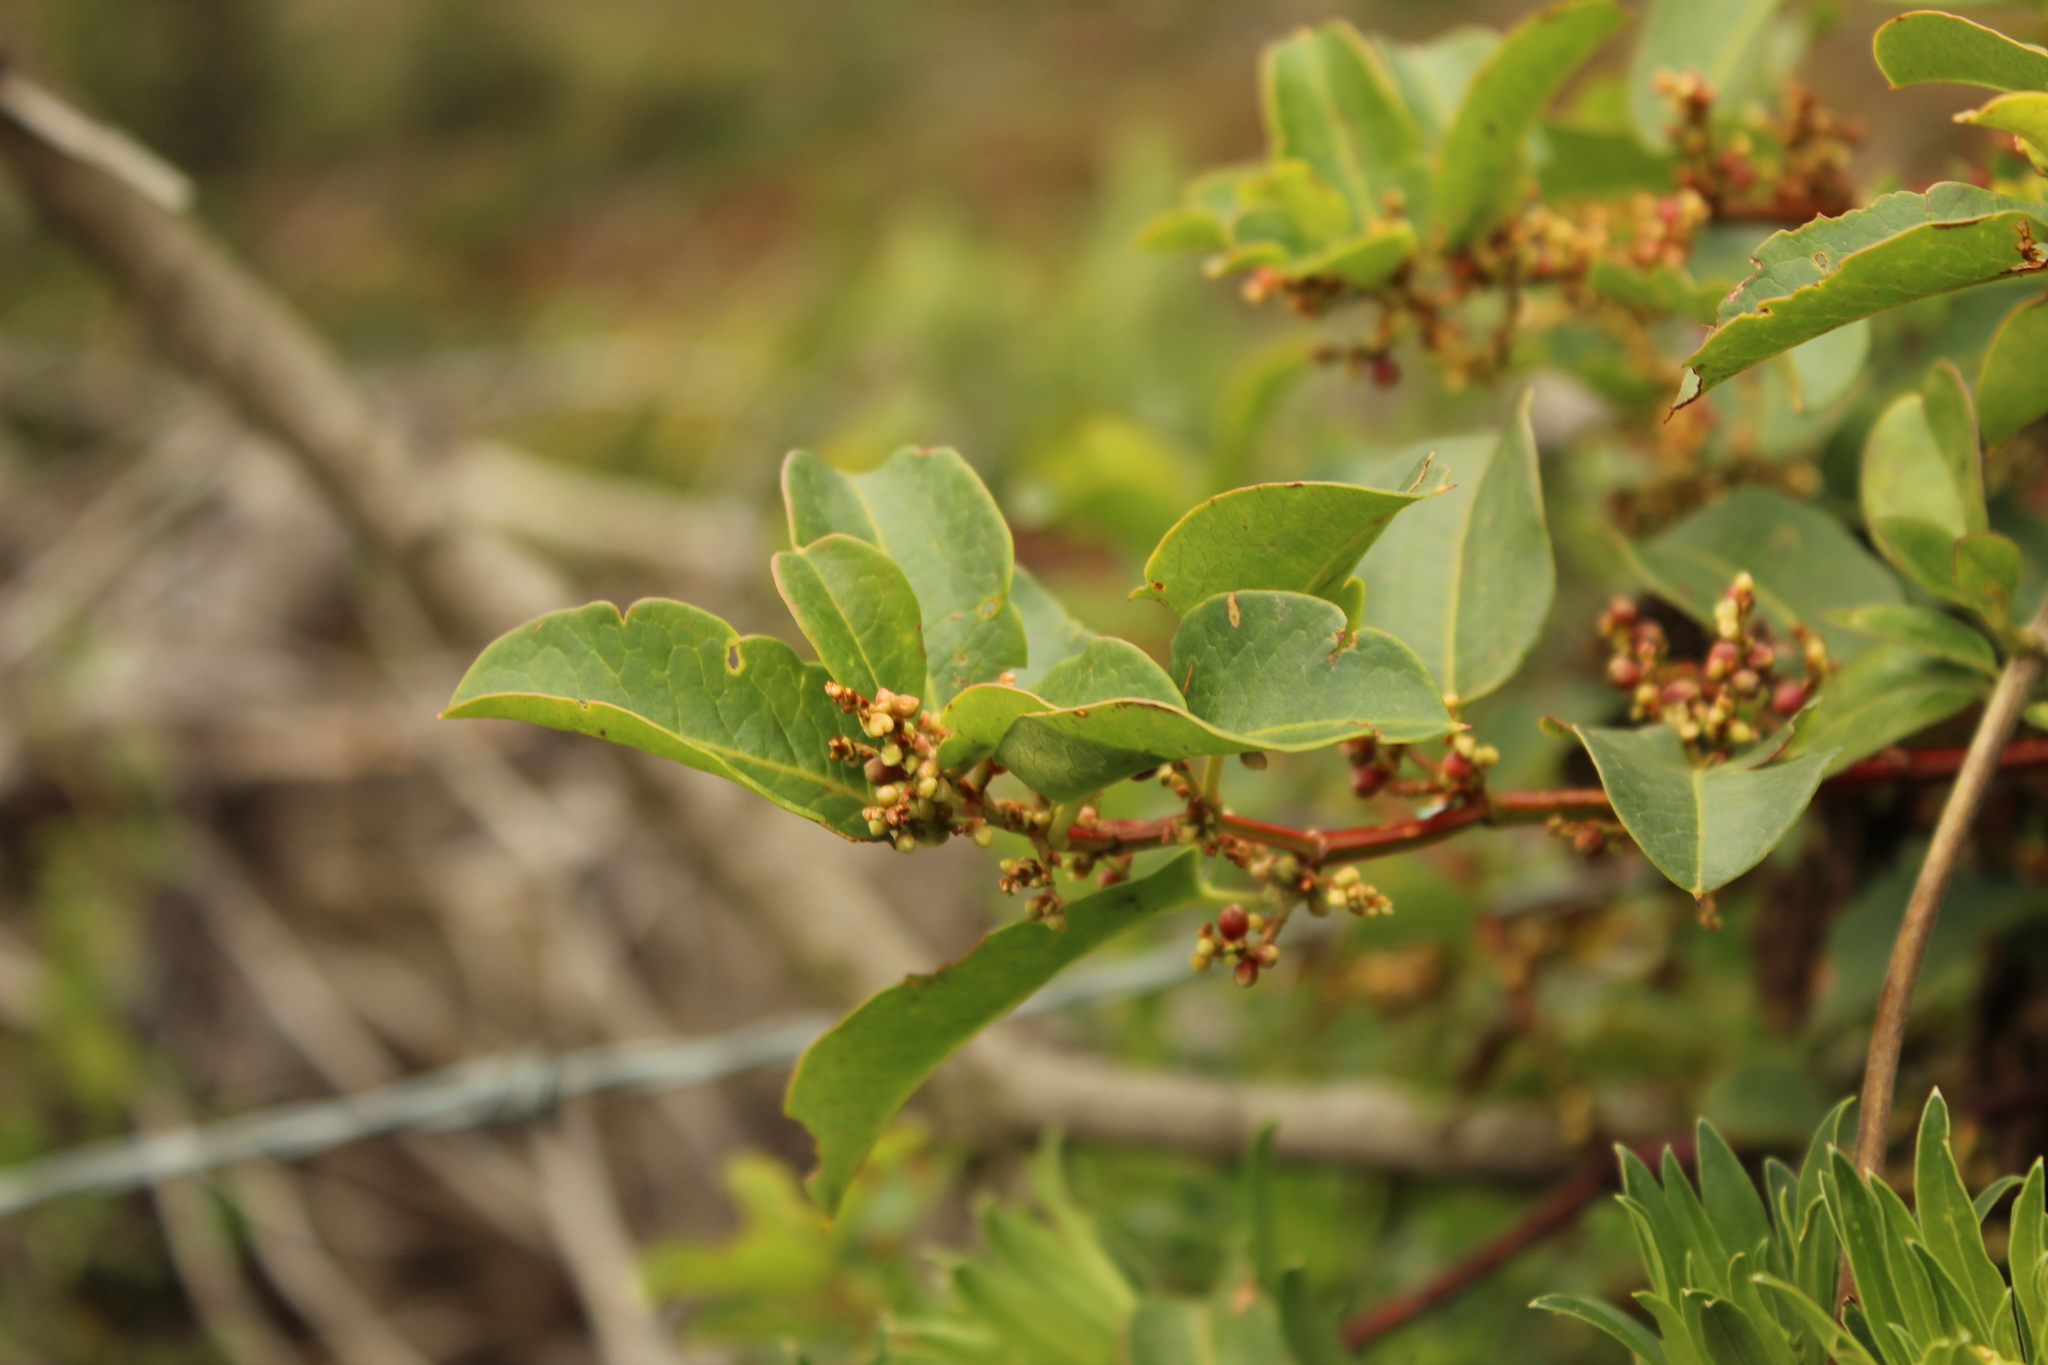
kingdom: Plantae
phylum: Tracheophyta
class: Magnoliopsida
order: Caryophyllales
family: Polygonaceae
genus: Muehlenbeckia
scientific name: Muehlenbeckia tamnifolia
